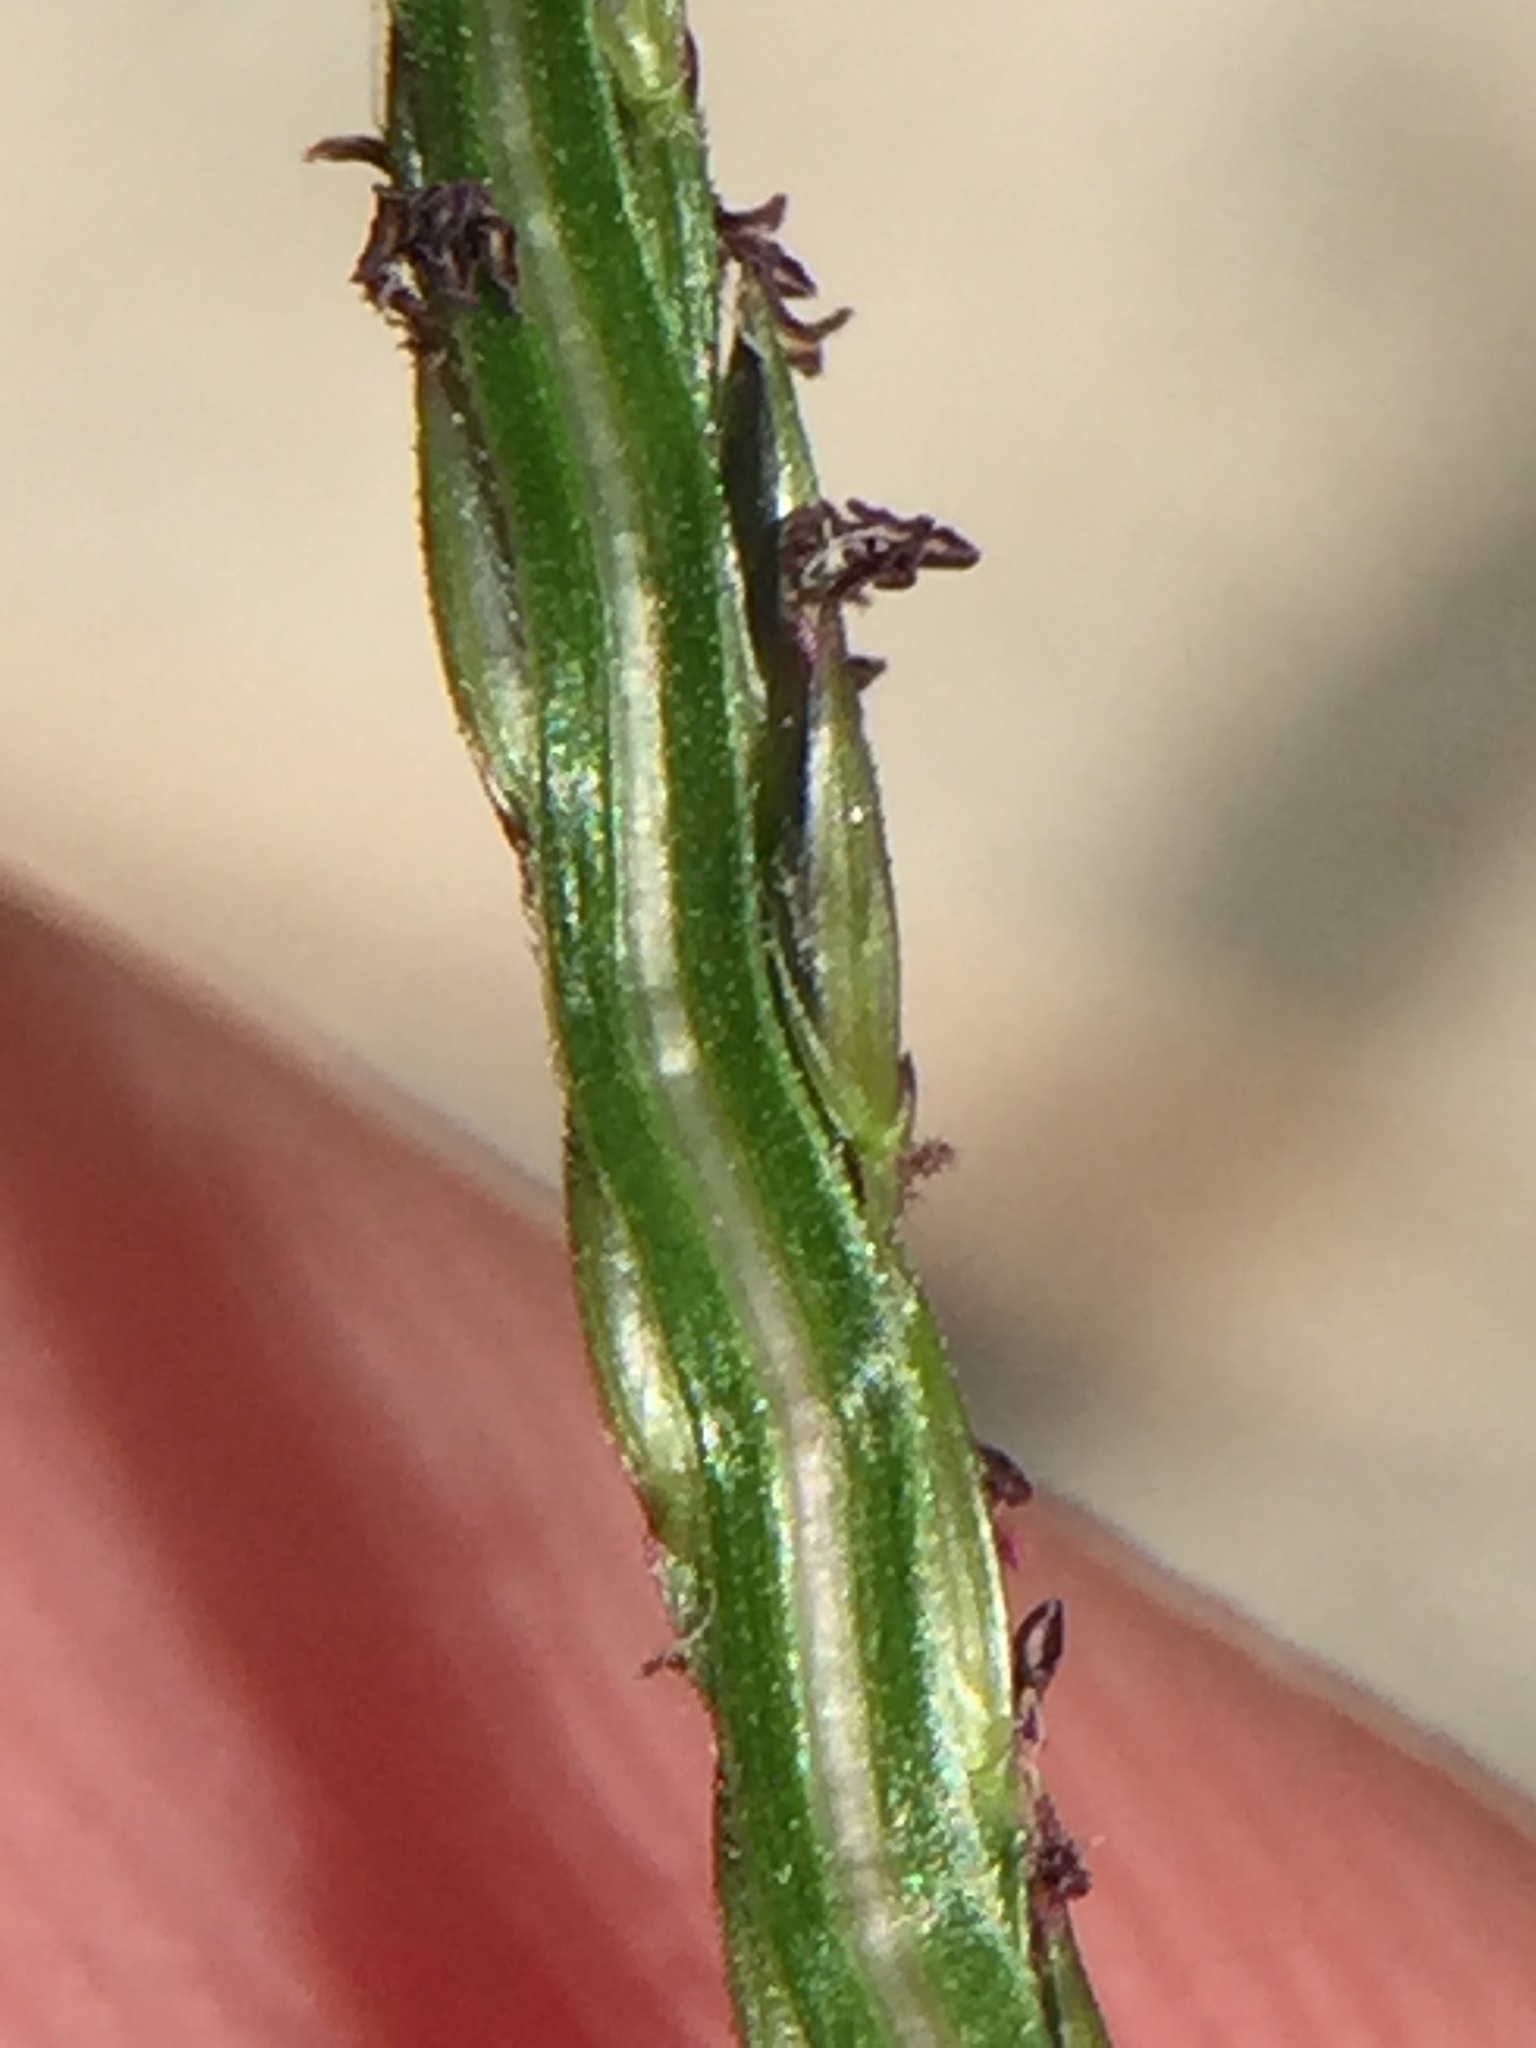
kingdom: Plantae
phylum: Tracheophyta
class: Liliopsida
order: Poales
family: Poaceae
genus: Digitaria
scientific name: Digitaria sanguinalis
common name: Hairy crabgrass
